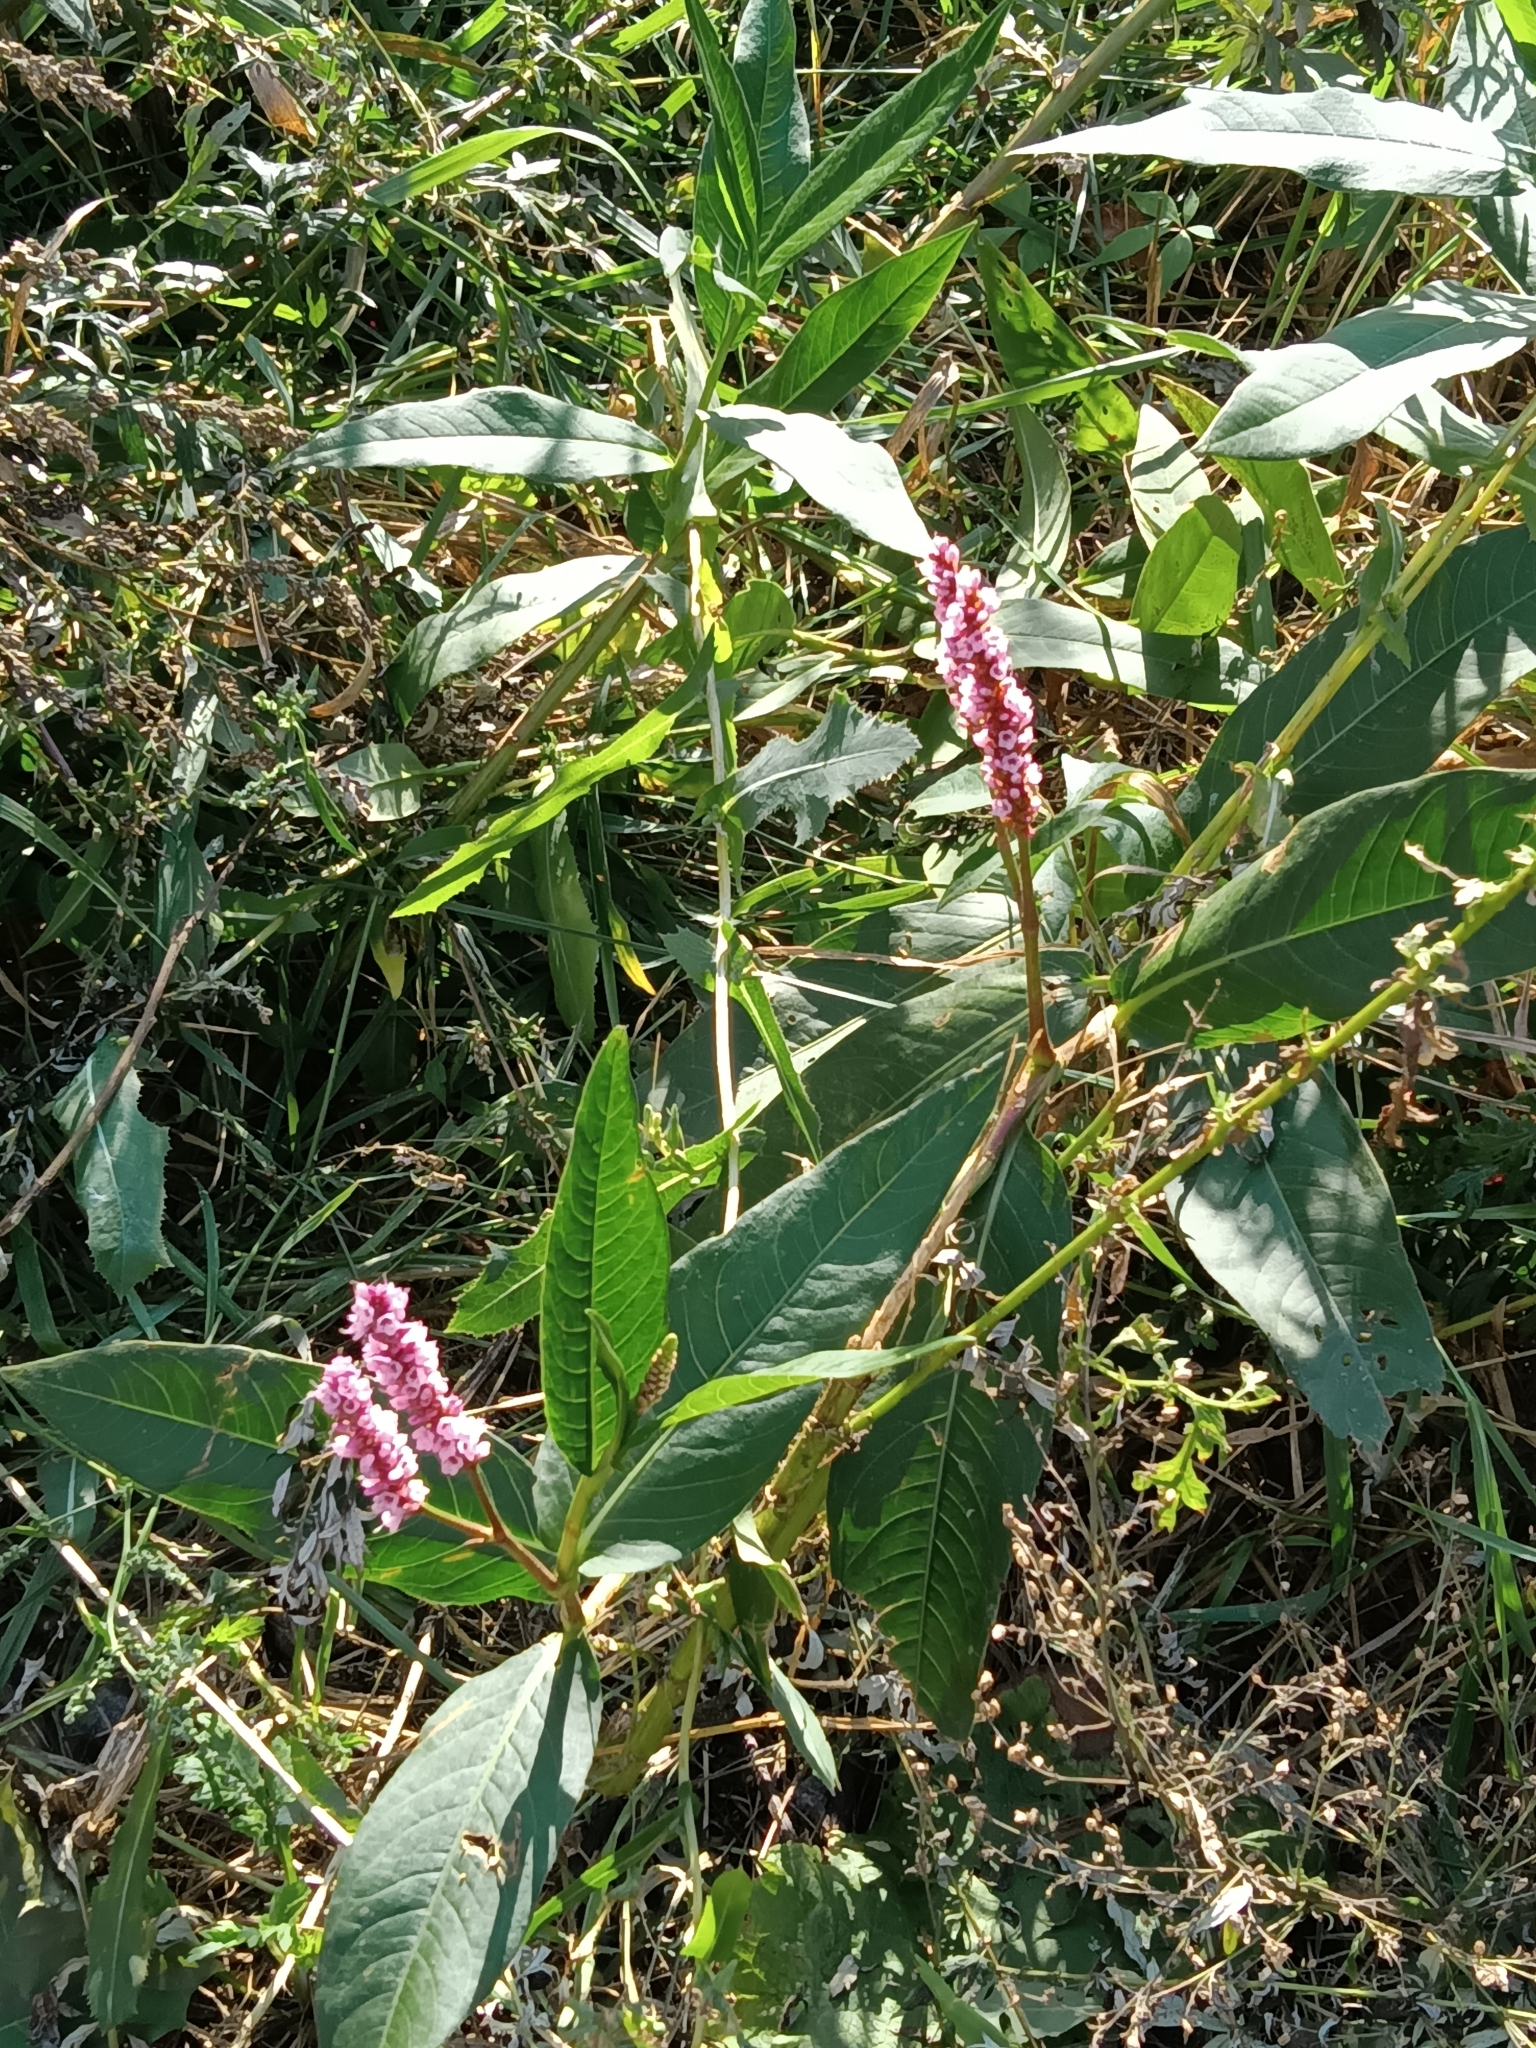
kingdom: Plantae
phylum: Tracheophyta
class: Magnoliopsida
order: Caryophyllales
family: Polygonaceae
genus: Persicaria
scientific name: Persicaria amphibia
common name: Amphibious bistort
